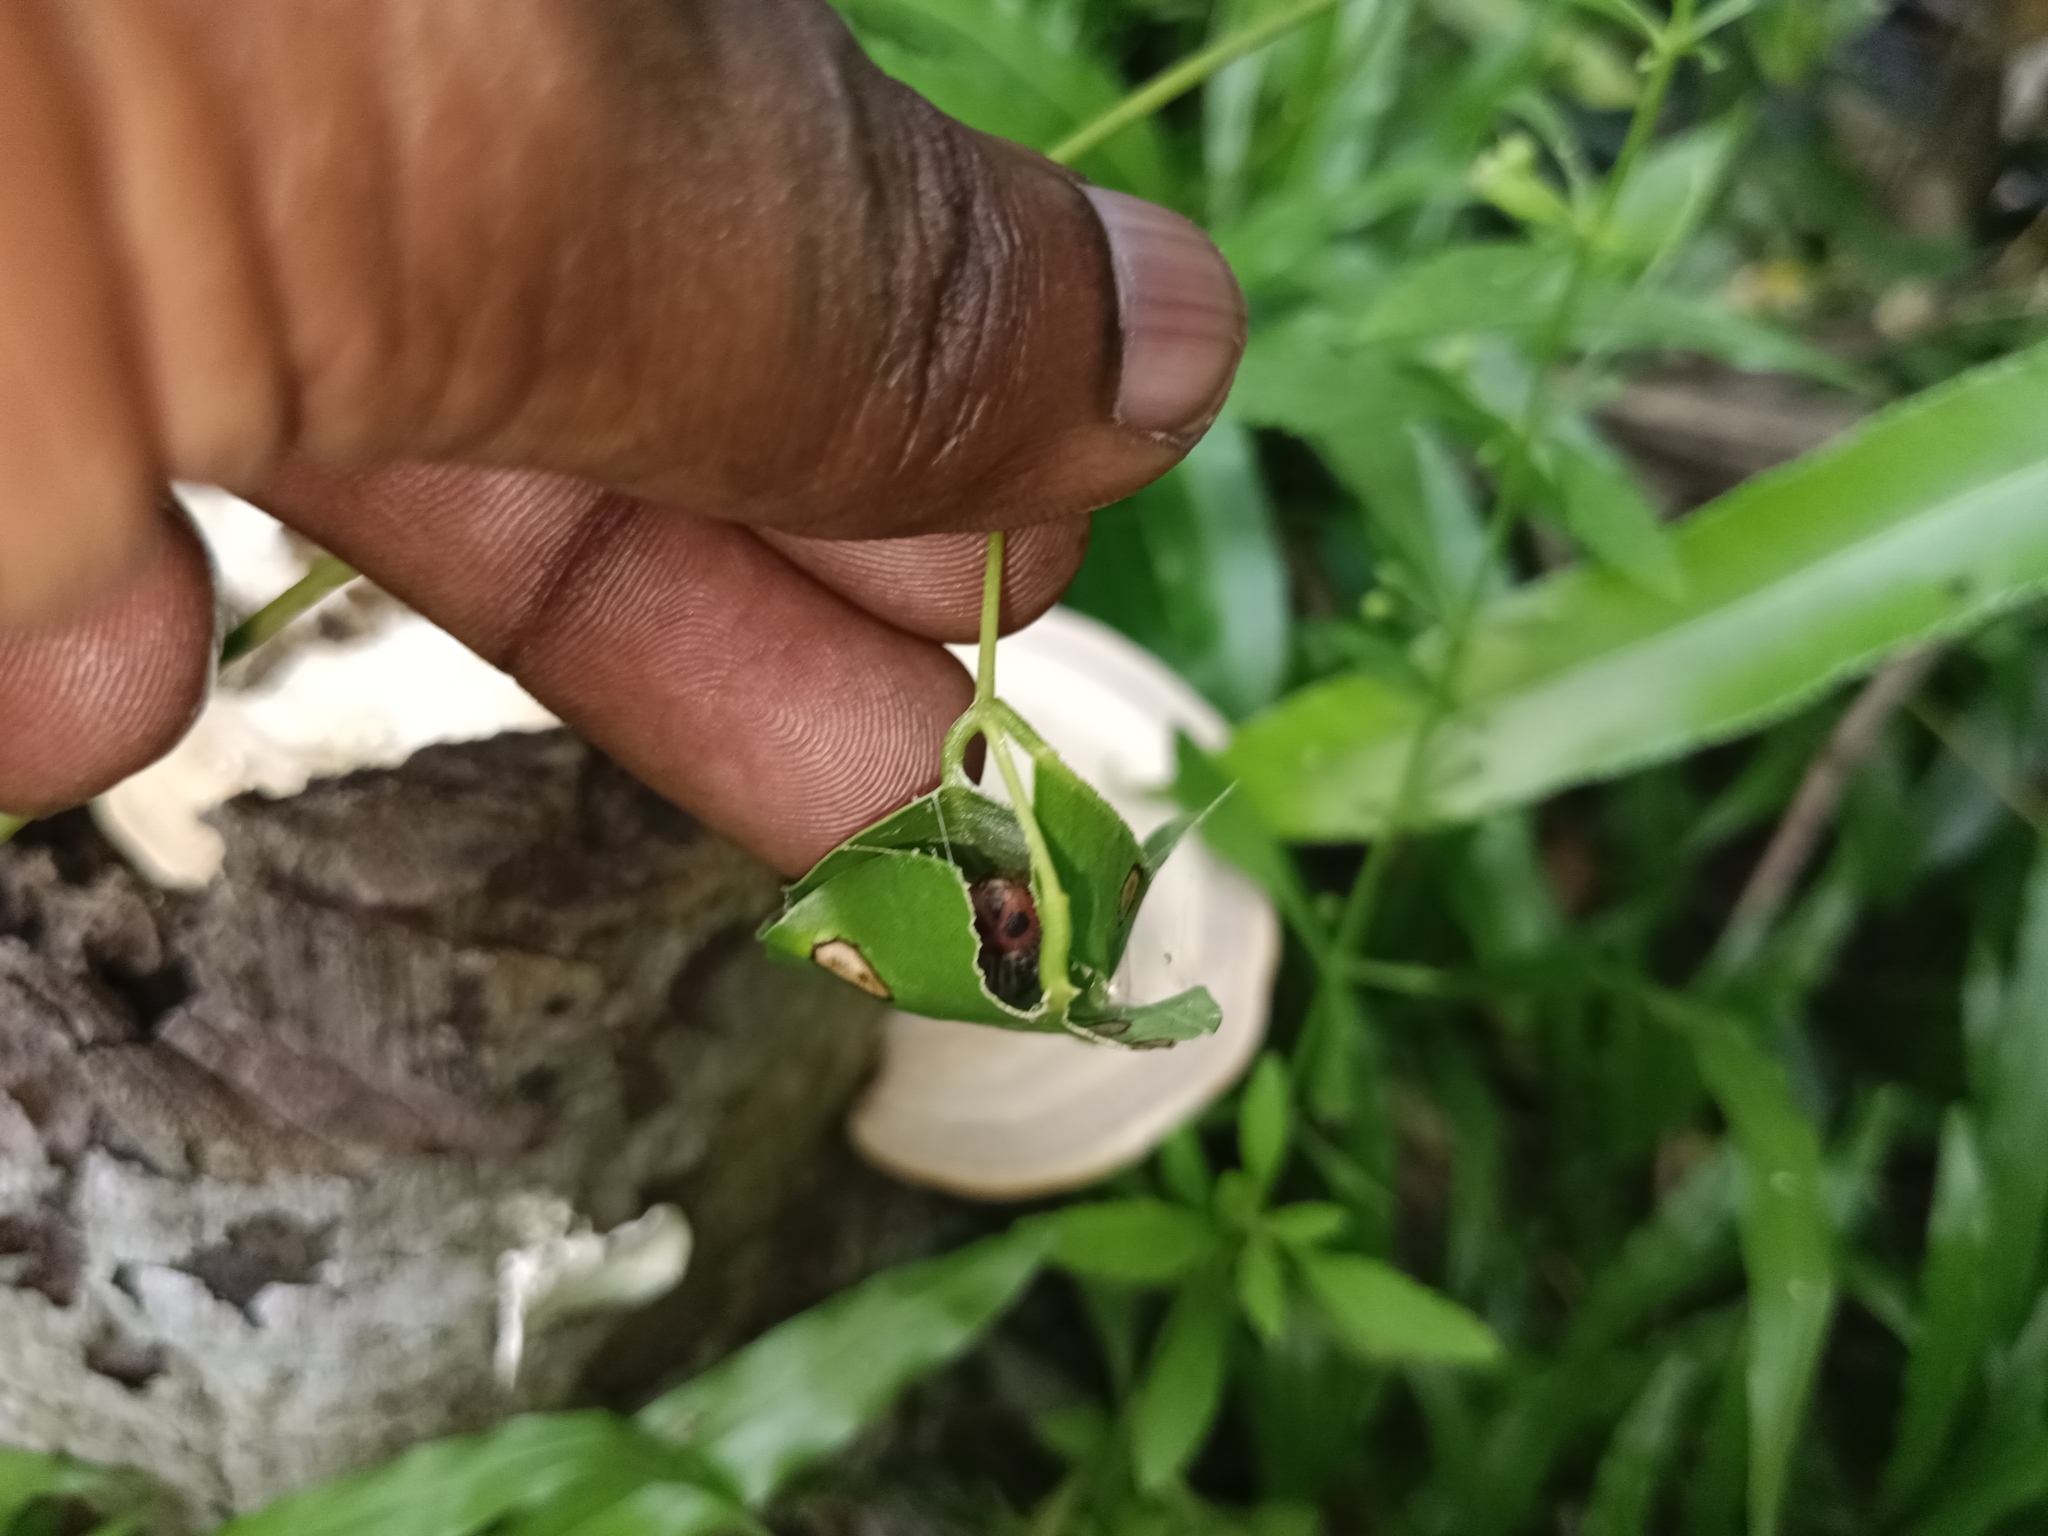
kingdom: Animalia
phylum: Arthropoda
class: Insecta
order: Lepidoptera
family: Hesperiidae
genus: Hasora
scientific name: Hasora badra
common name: Common awl
